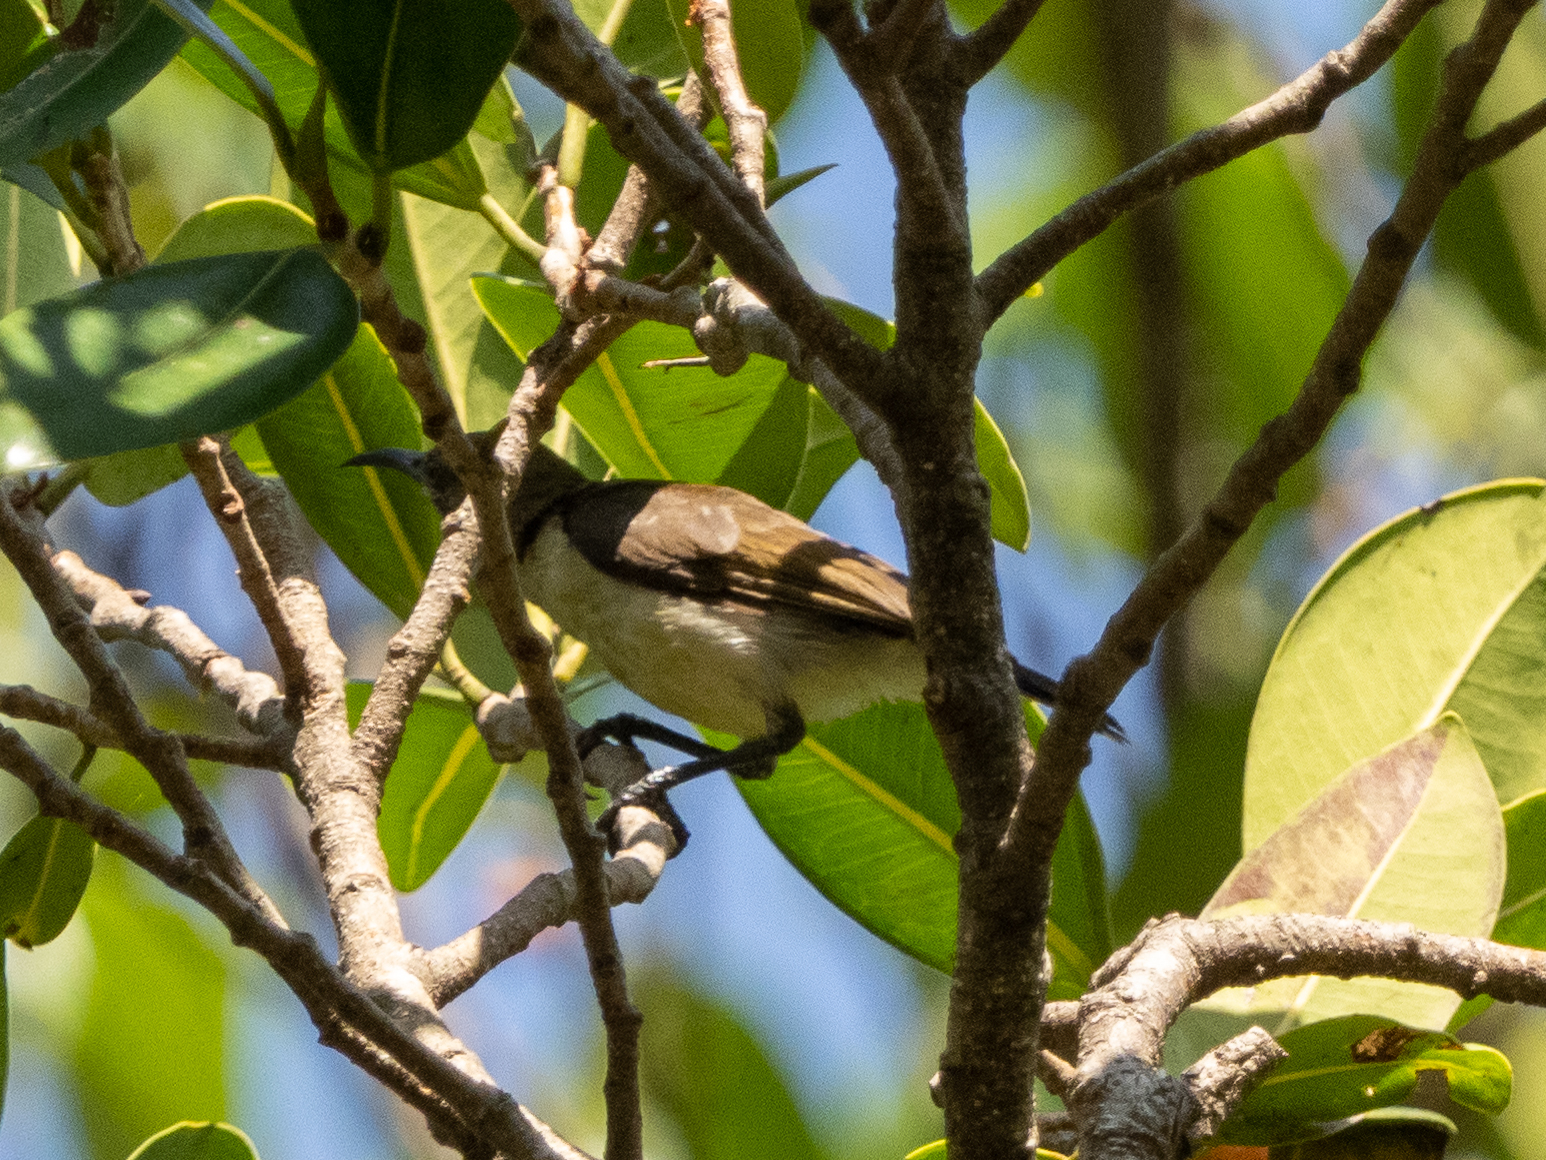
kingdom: Animalia
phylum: Chordata
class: Aves
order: Passeriformes
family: Nectariniidae
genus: Cinnyris
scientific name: Cinnyris asiaticus
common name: Purple sunbird
